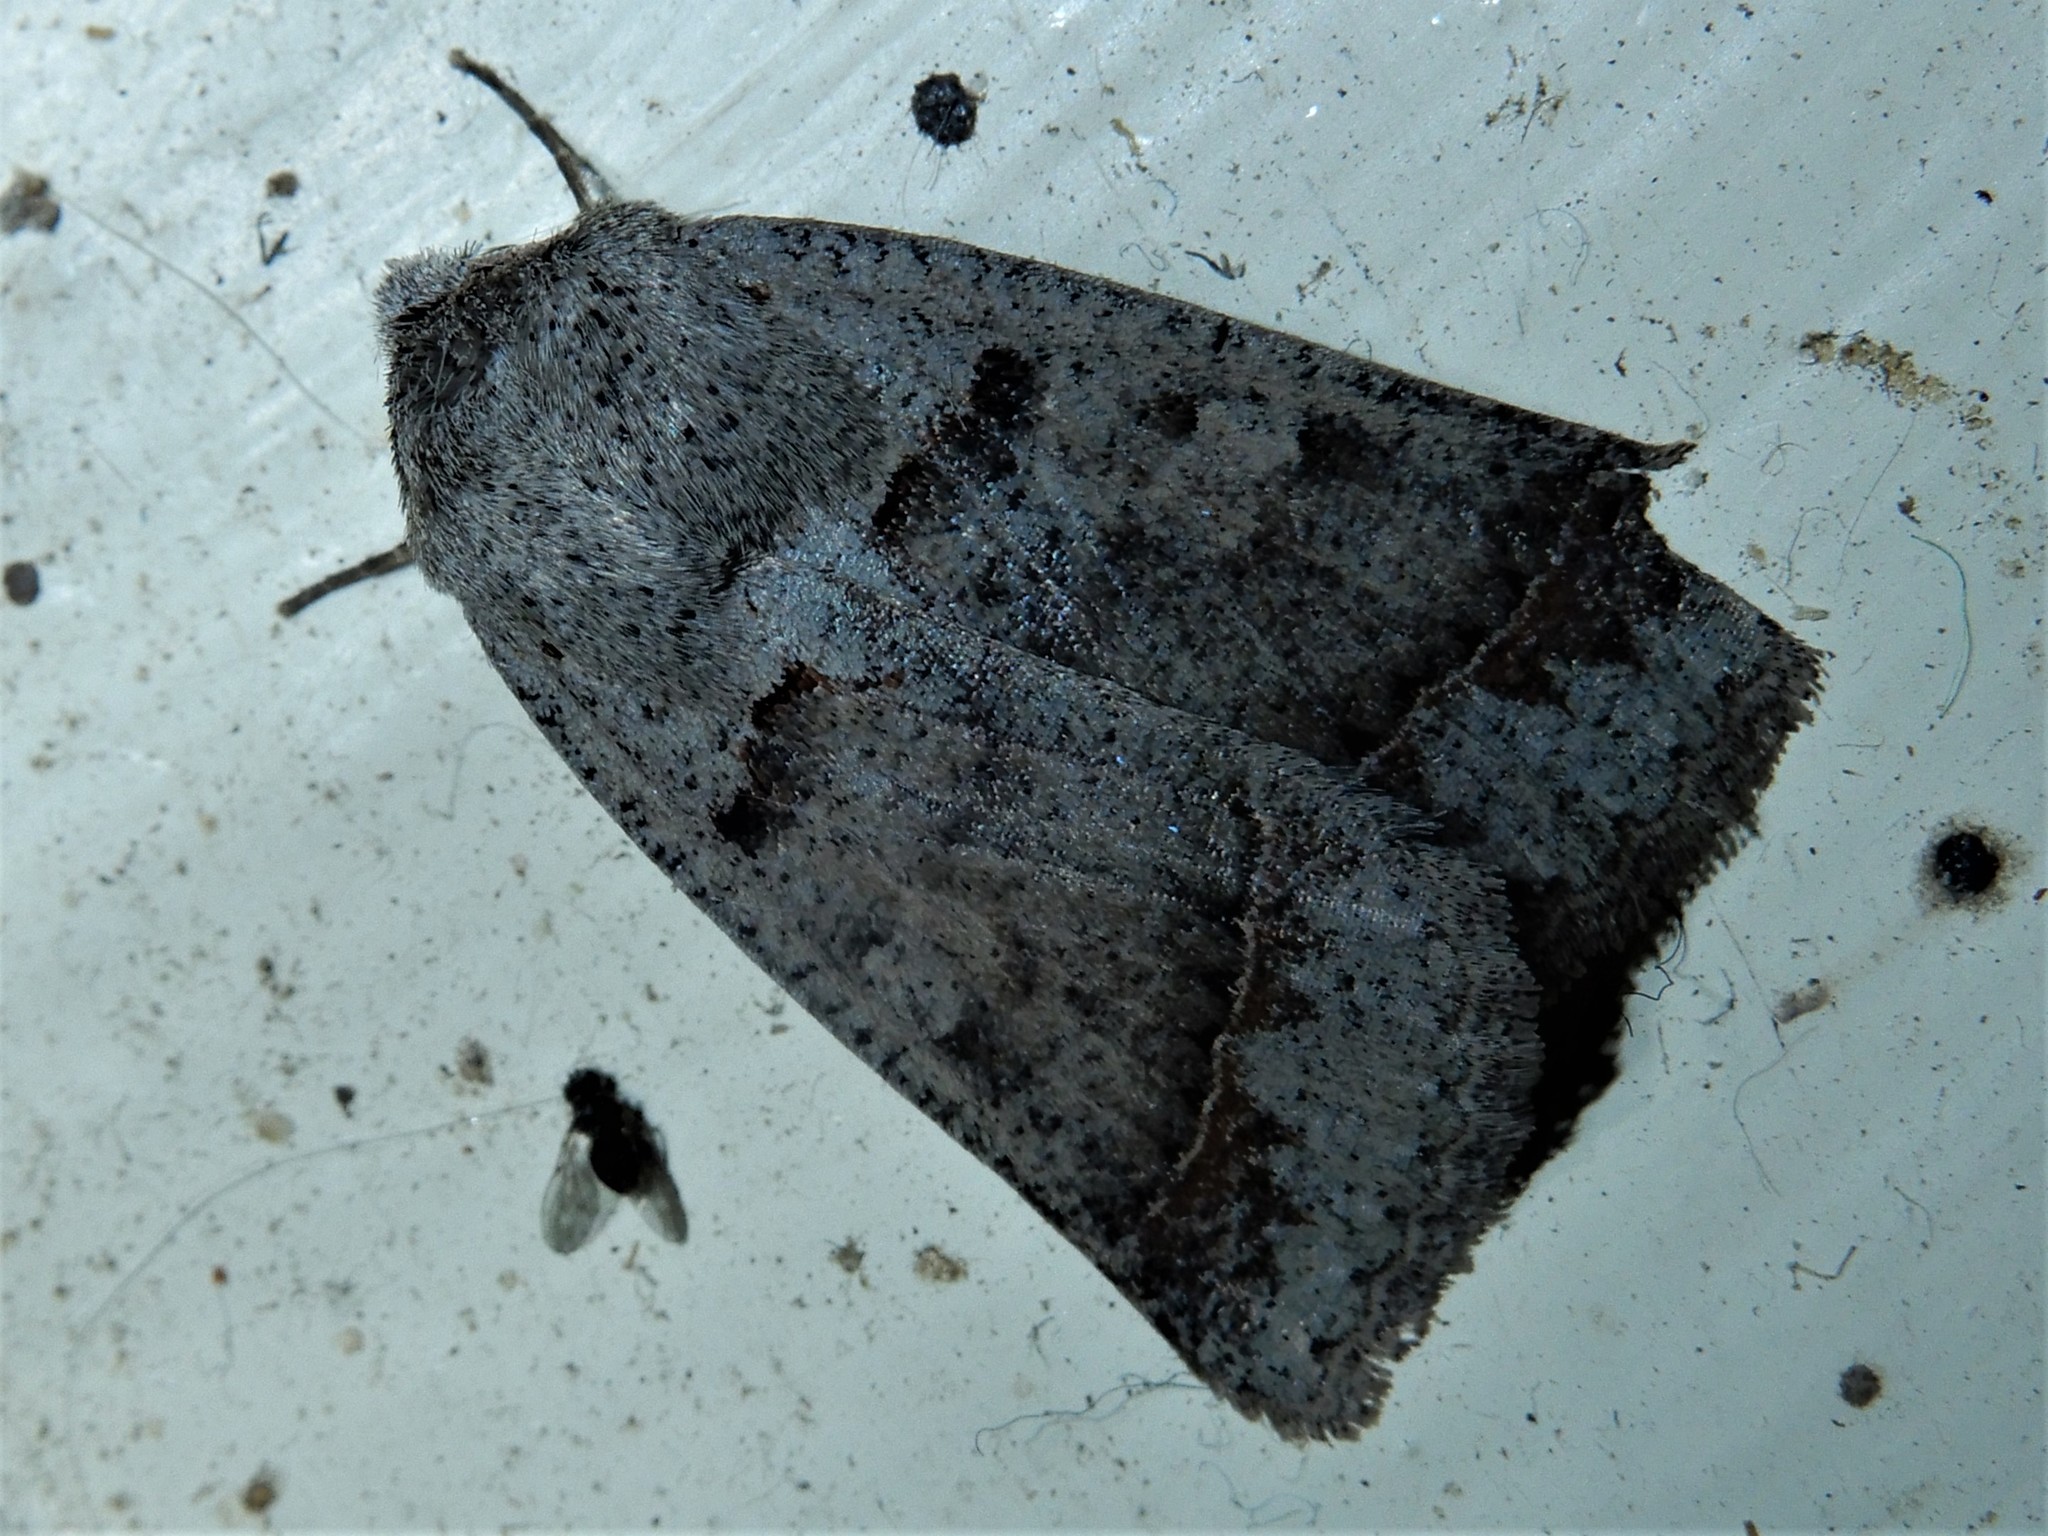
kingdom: Animalia
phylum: Arthropoda
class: Insecta
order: Lepidoptera
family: Erebidae
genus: Pantydia
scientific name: Pantydia sparsa
